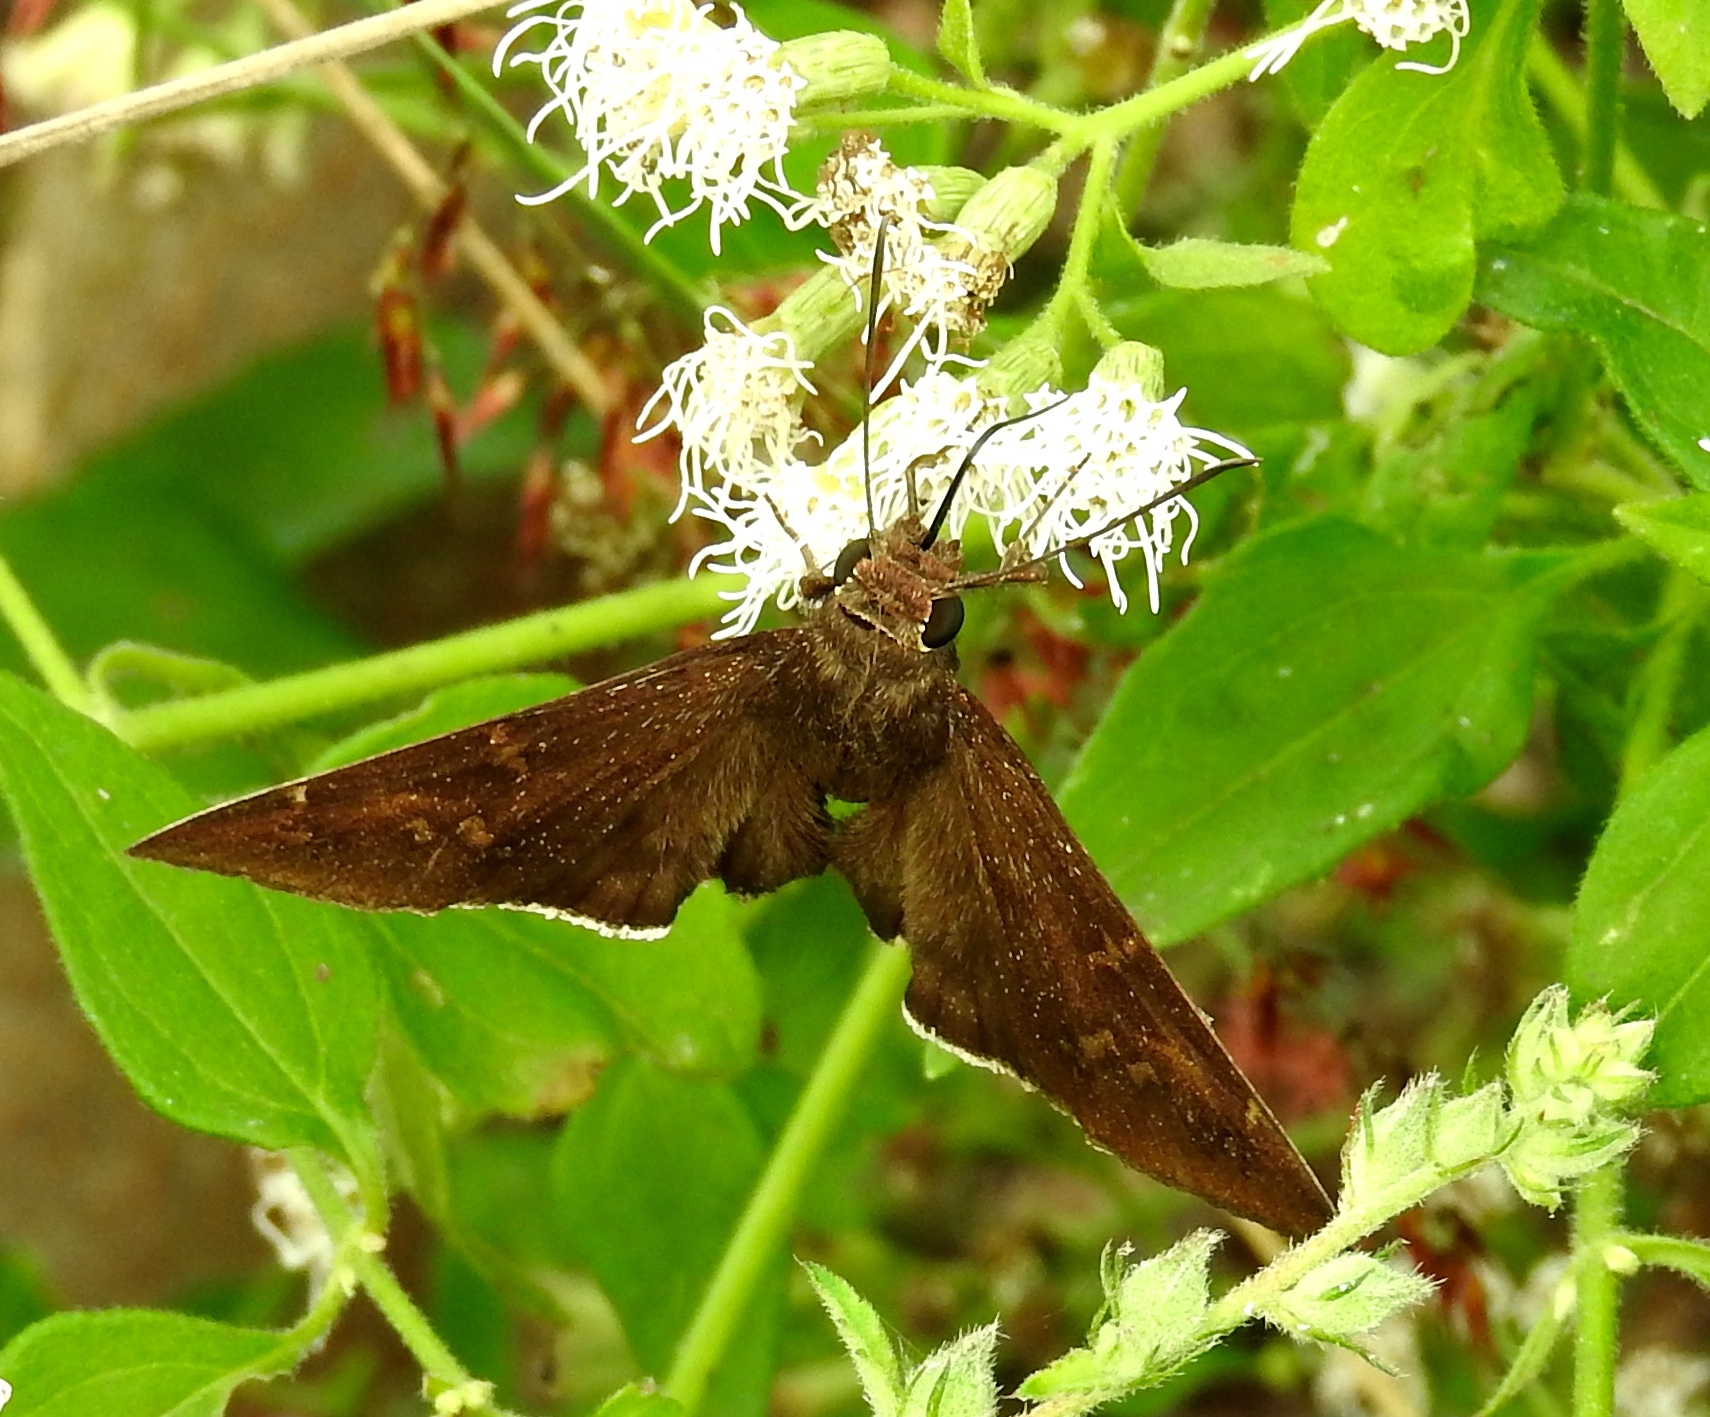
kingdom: Plantae
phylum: Tracheophyta
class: Magnoliopsida
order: Asterales
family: Asteraceae
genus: Chromolaena
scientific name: Chromolaena odorata
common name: Siamweed
